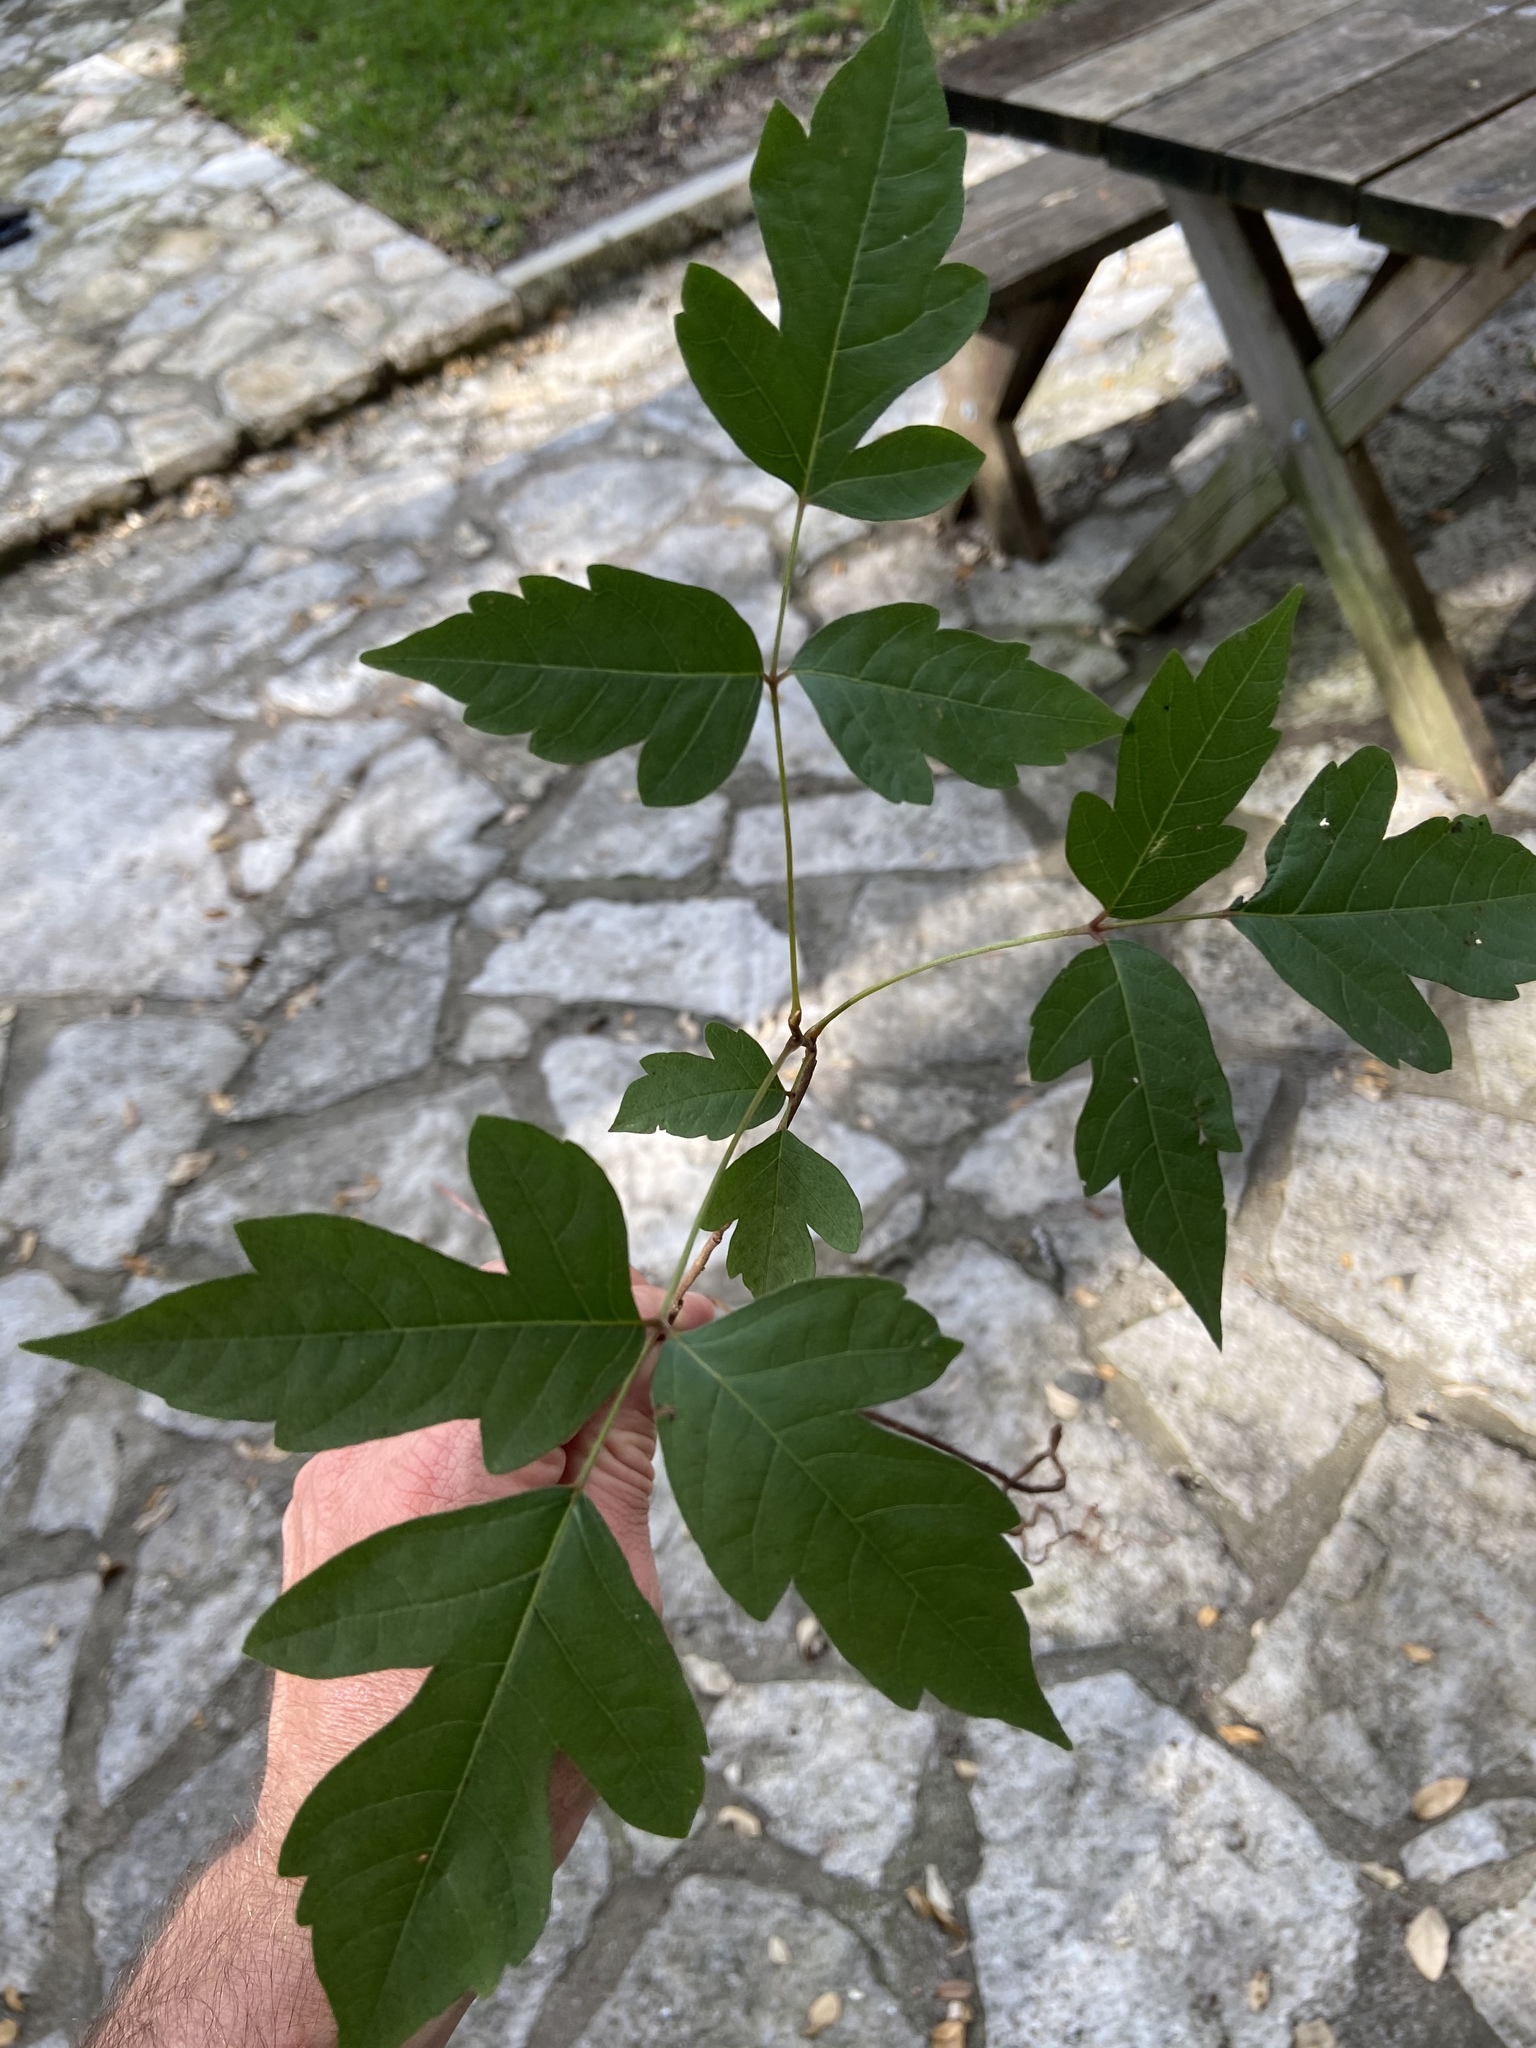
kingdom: Plantae
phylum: Tracheophyta
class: Magnoliopsida
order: Sapindales
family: Anacardiaceae
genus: Toxicodendron
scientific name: Toxicodendron radicans
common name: Poison ivy
